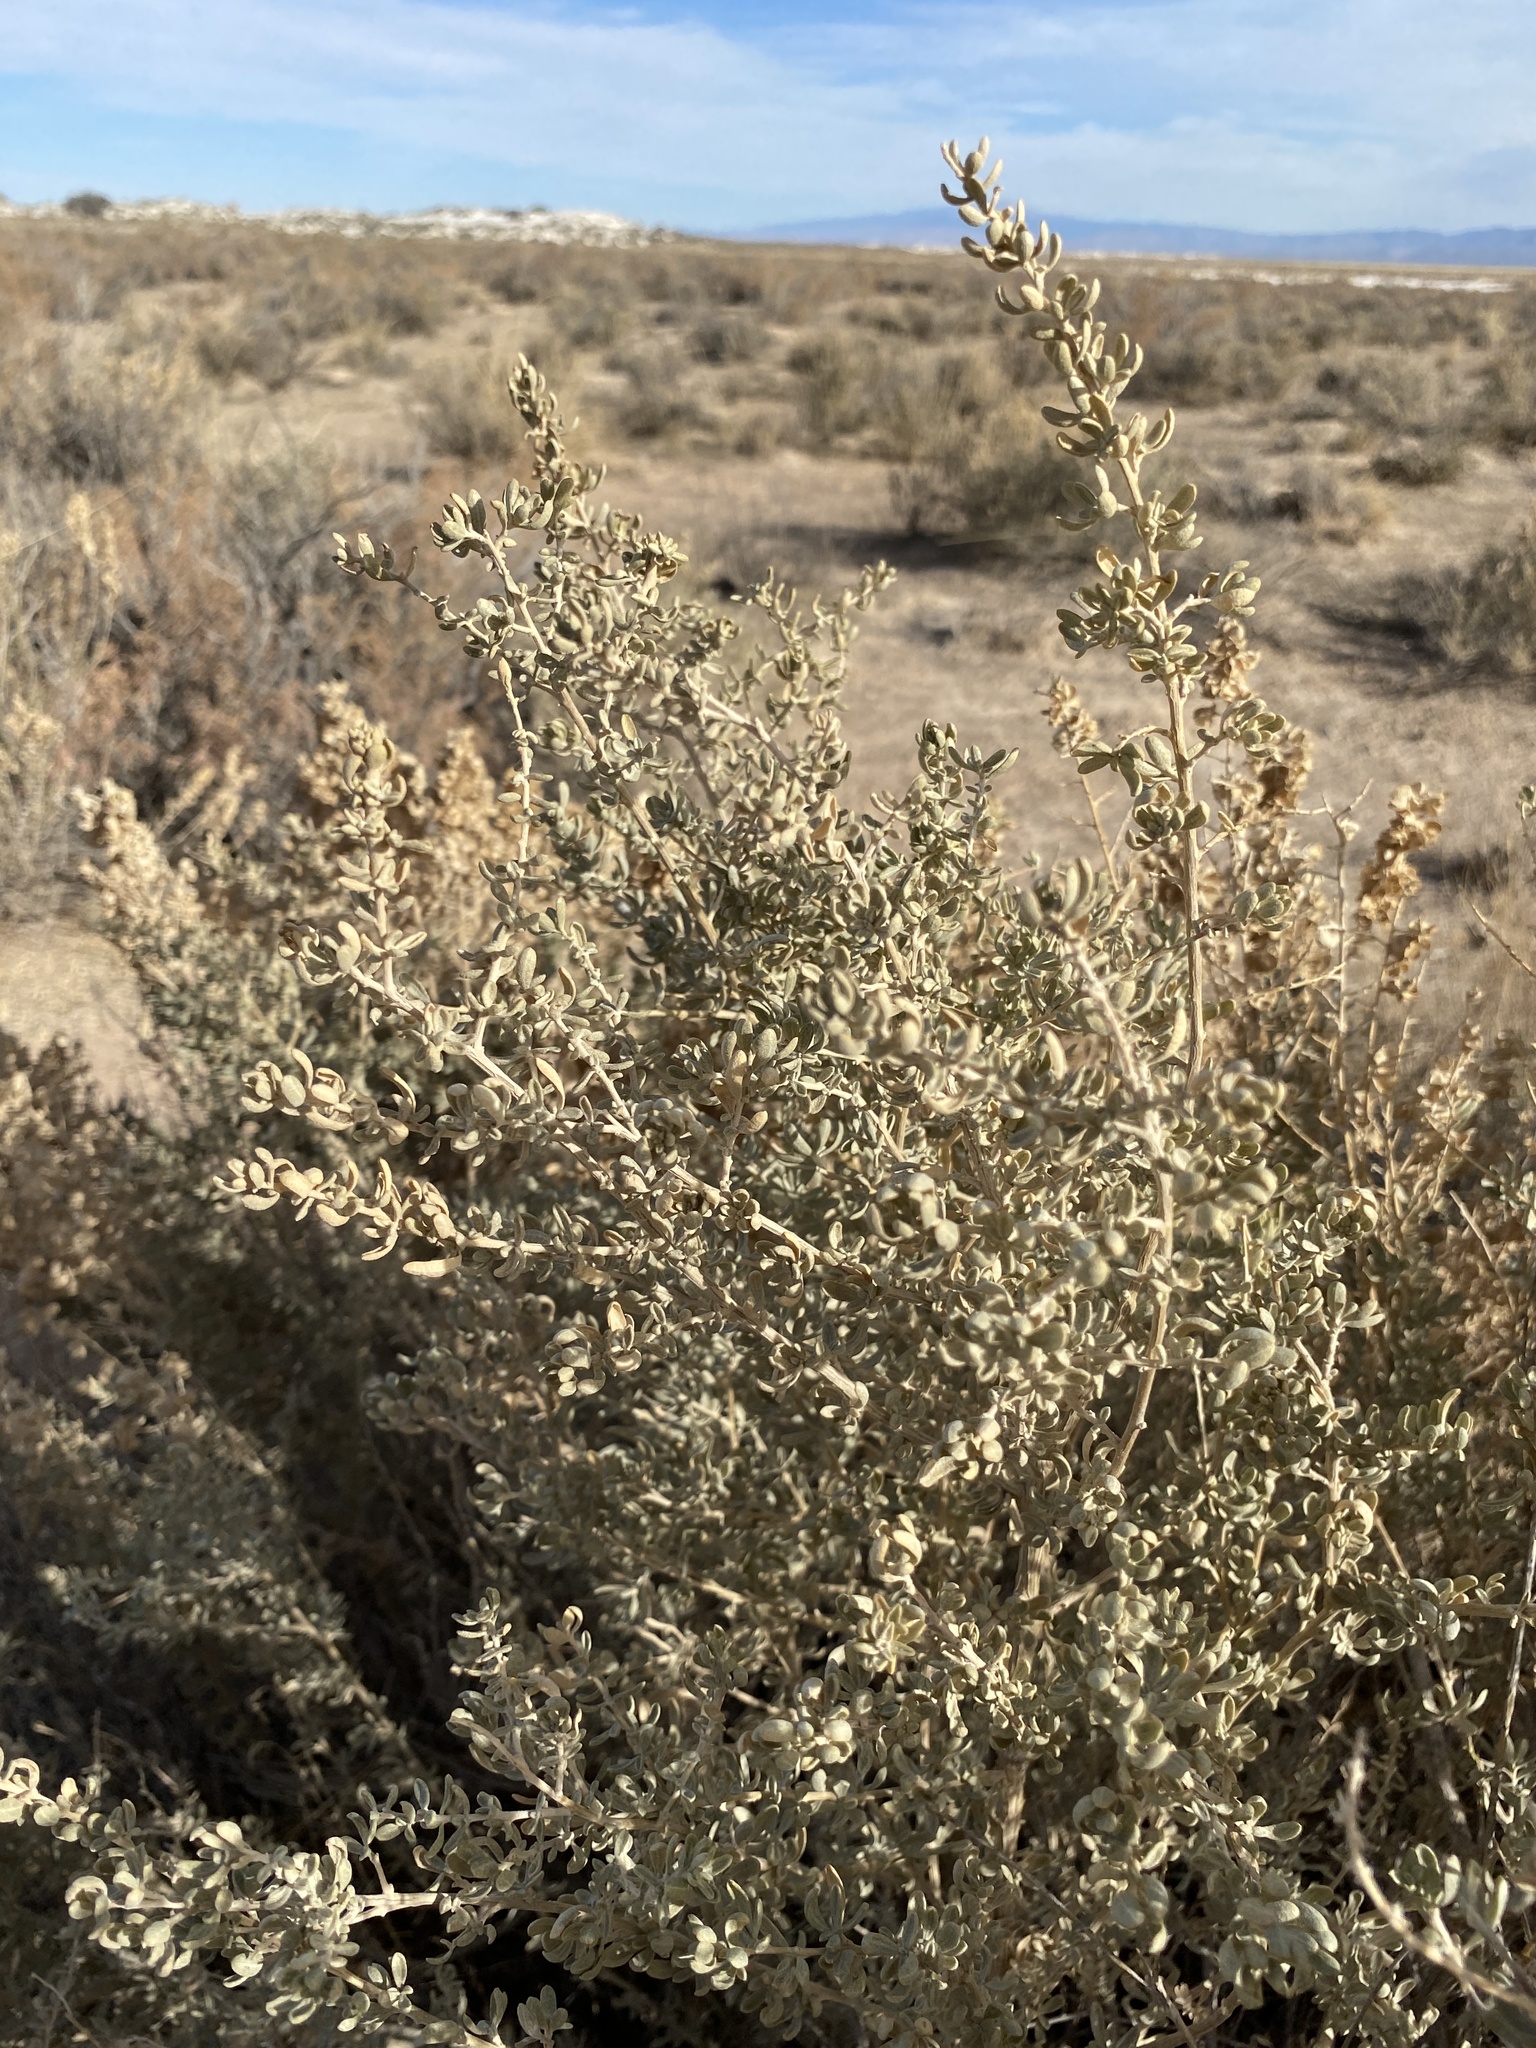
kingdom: Plantae
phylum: Tracheophyta
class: Magnoliopsida
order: Caryophyllales
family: Amaranthaceae
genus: Atriplex
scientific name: Atriplex canescens
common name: Four-wing saltbush
